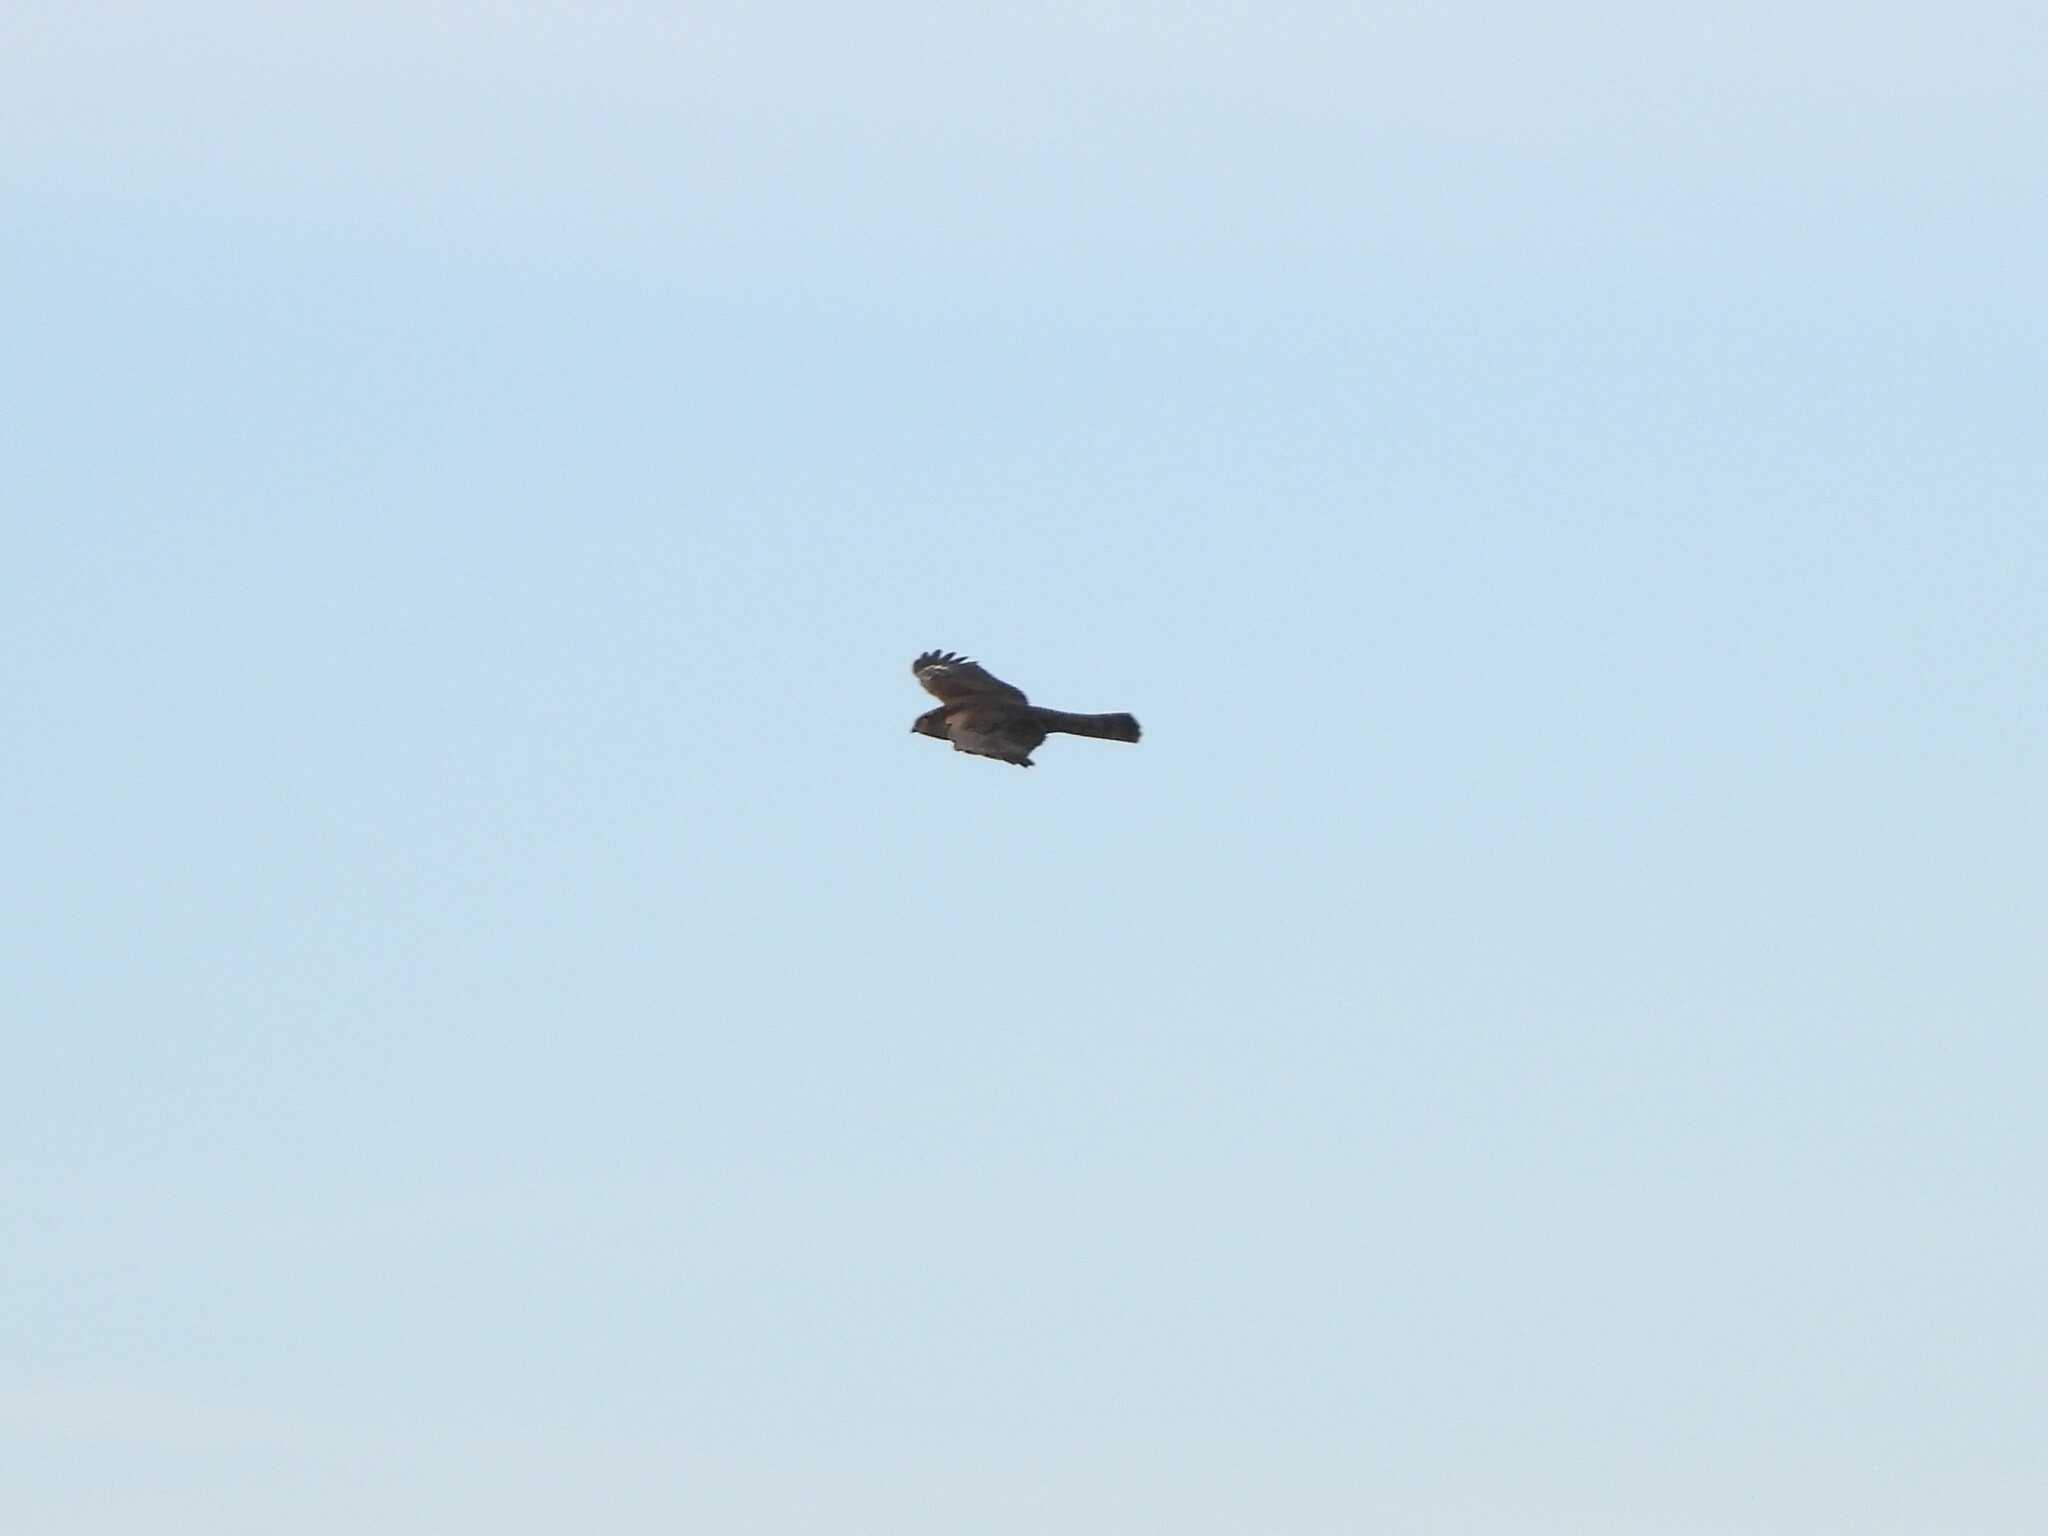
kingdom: Animalia
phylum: Chordata
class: Aves
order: Accipitriformes
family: Accipitridae
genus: Accipiter
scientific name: Accipiter nisus
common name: Eurasian sparrowhawk
